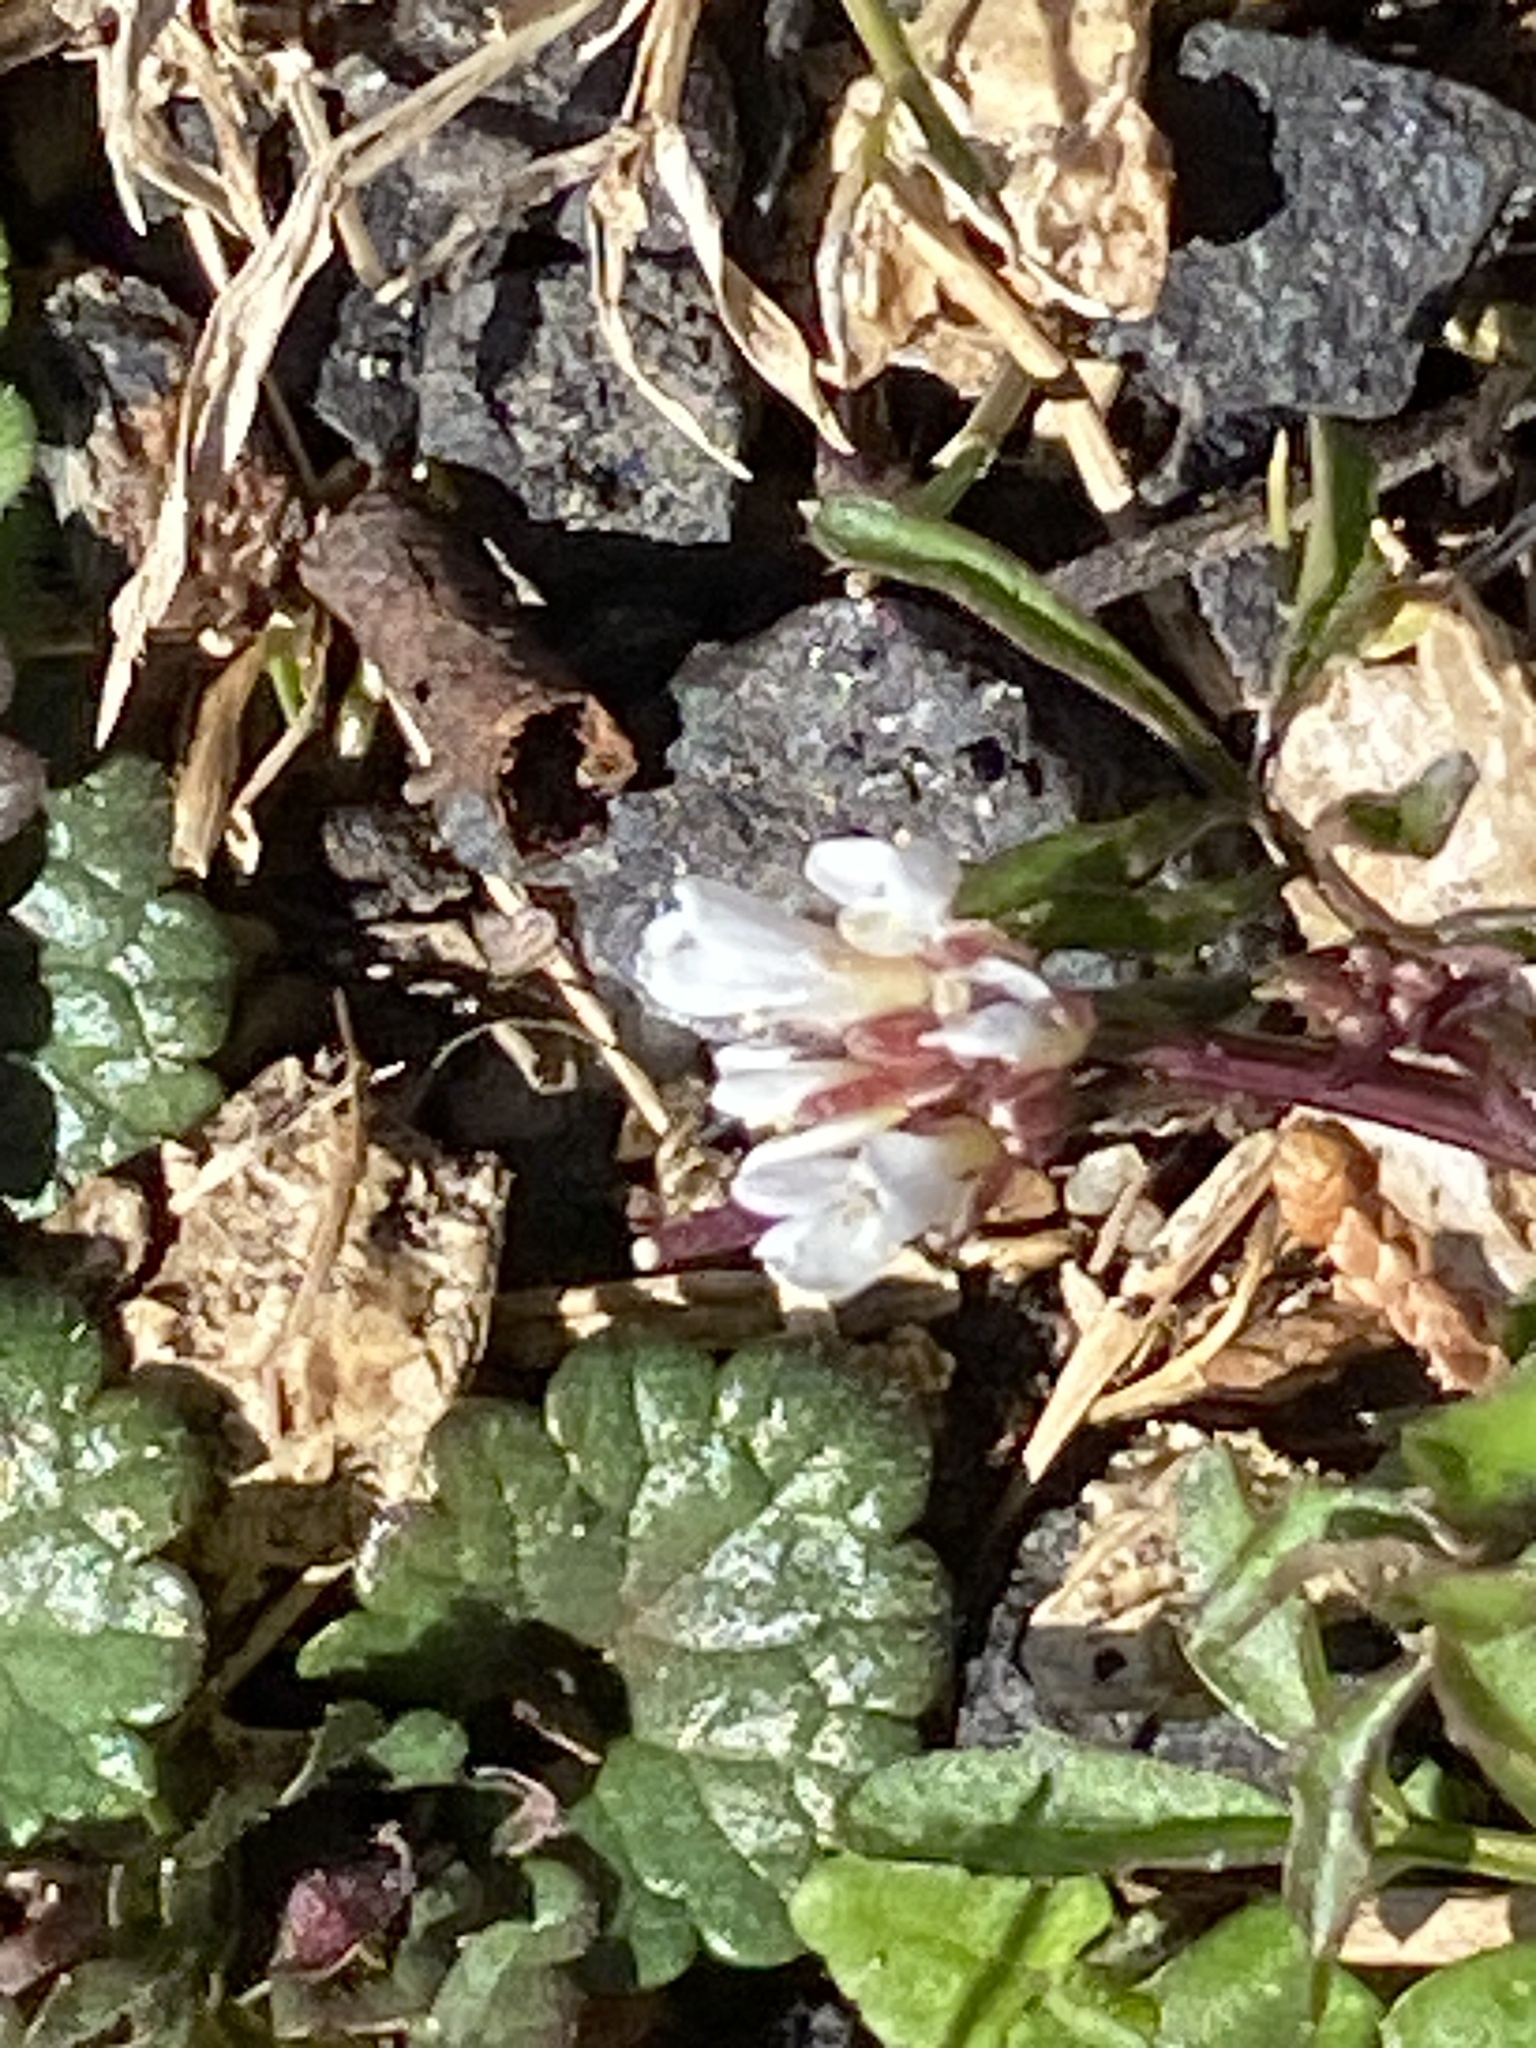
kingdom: Plantae
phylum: Tracheophyta
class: Magnoliopsida
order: Brassicales
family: Brassicaceae
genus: Cardamine
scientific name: Cardamine hirsuta
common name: Hairy bittercress
